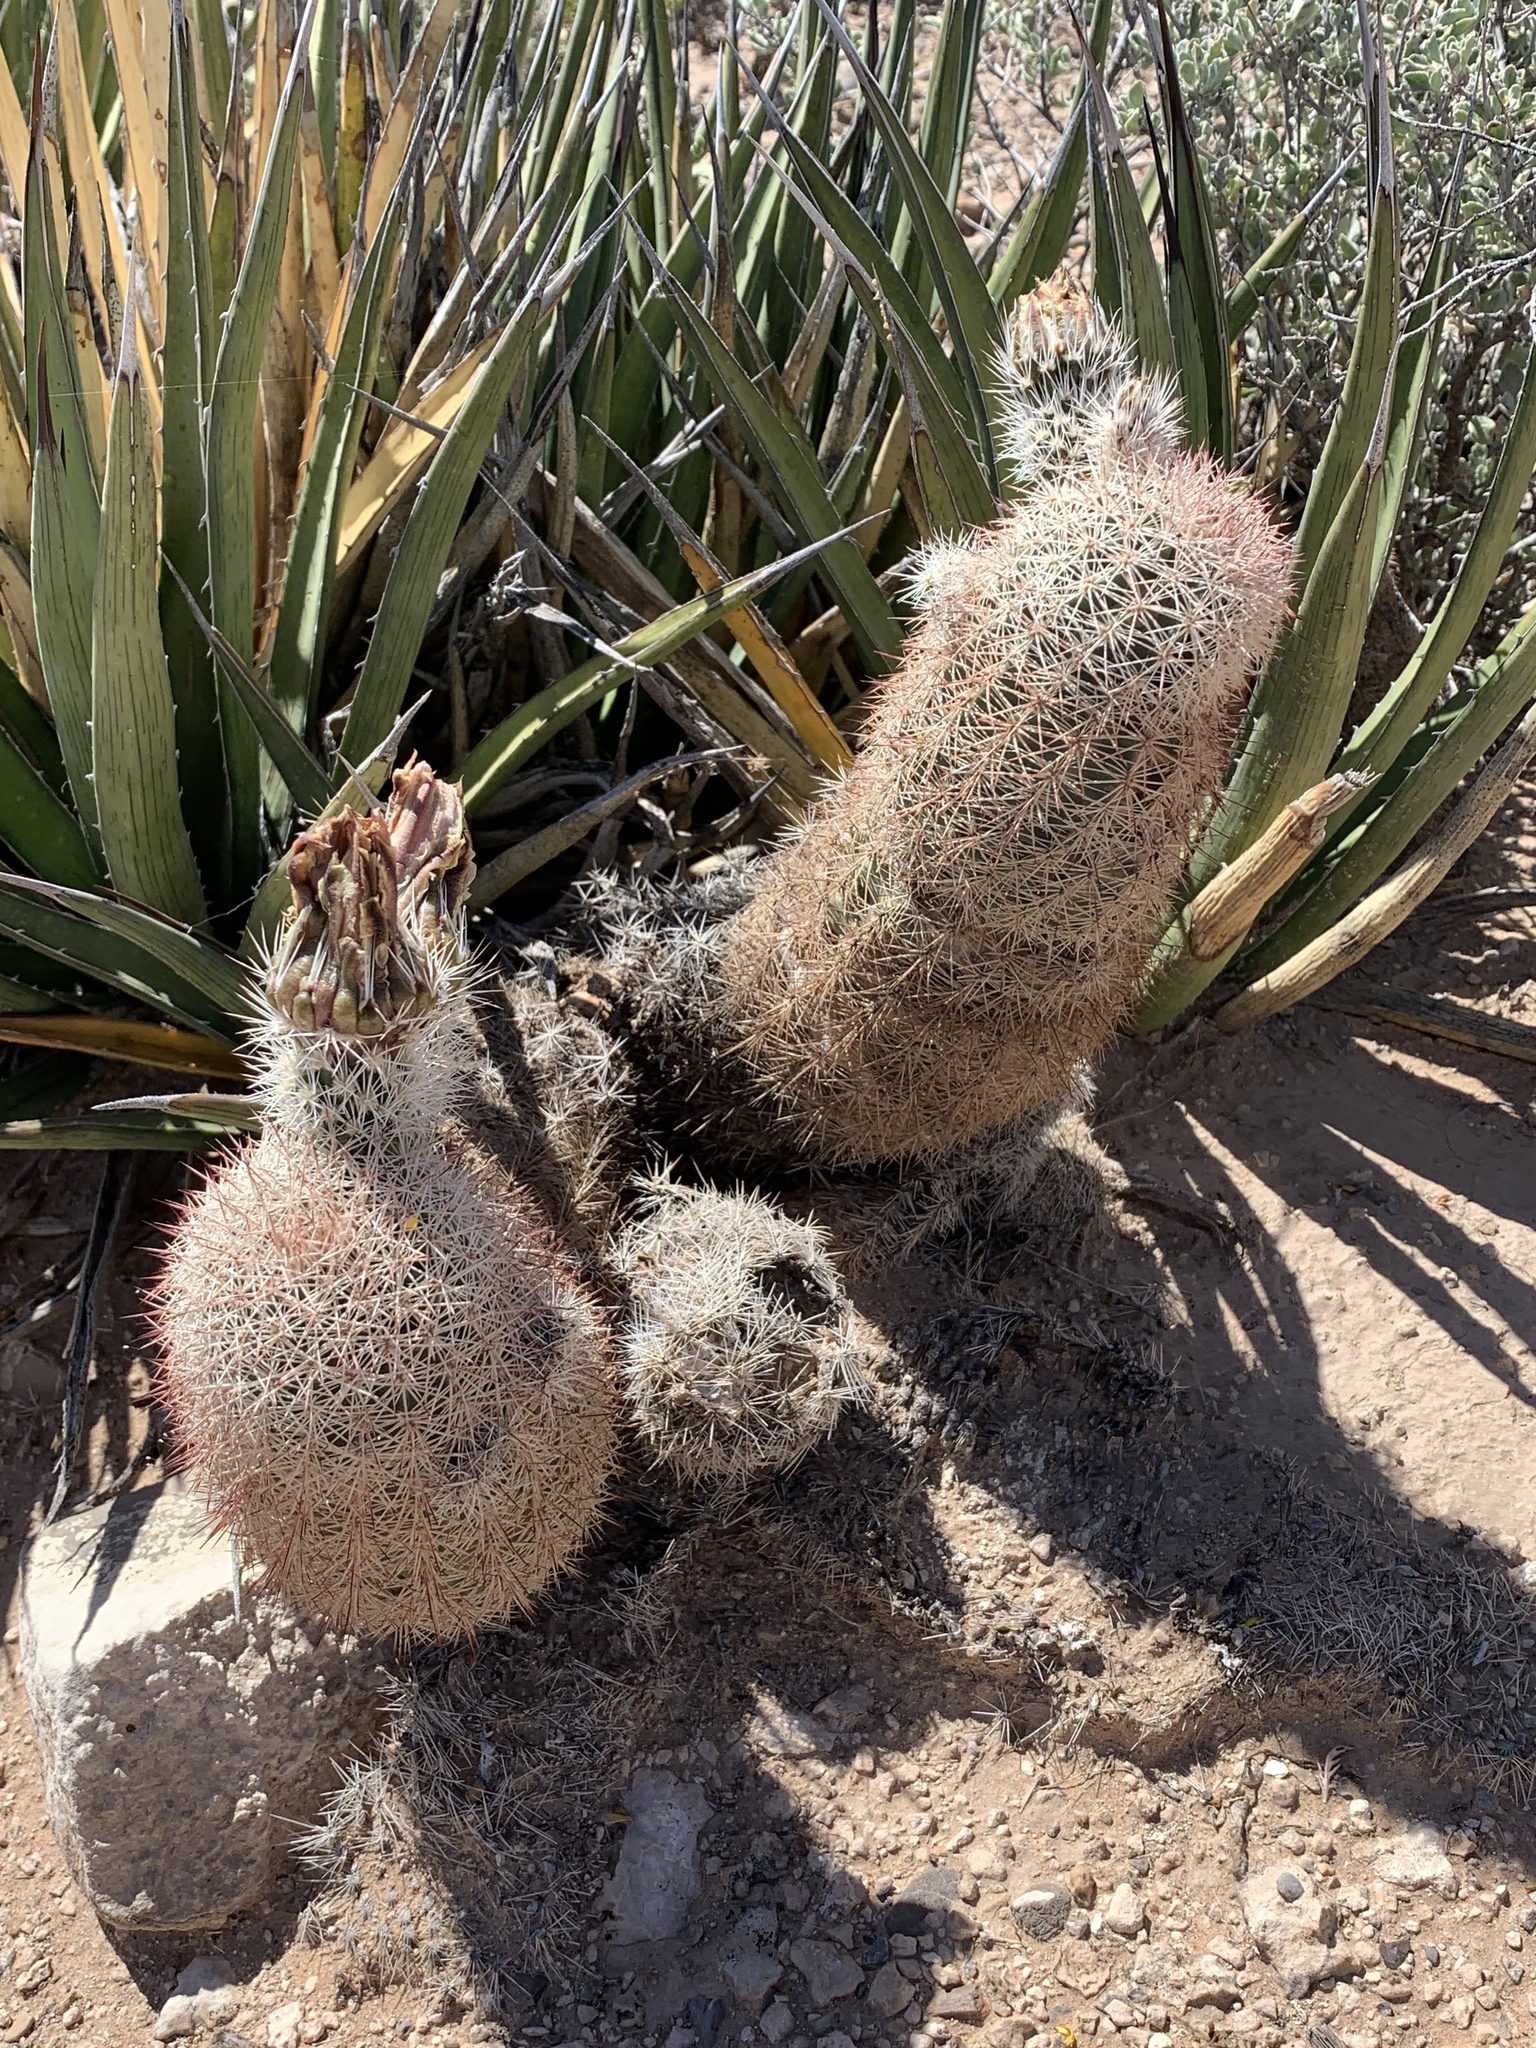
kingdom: Plantae
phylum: Tracheophyta
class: Magnoliopsida
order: Caryophyllales
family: Cactaceae
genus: Echinocereus
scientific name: Echinocereus dasyacanthus
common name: Spiny hedgehog cactus
